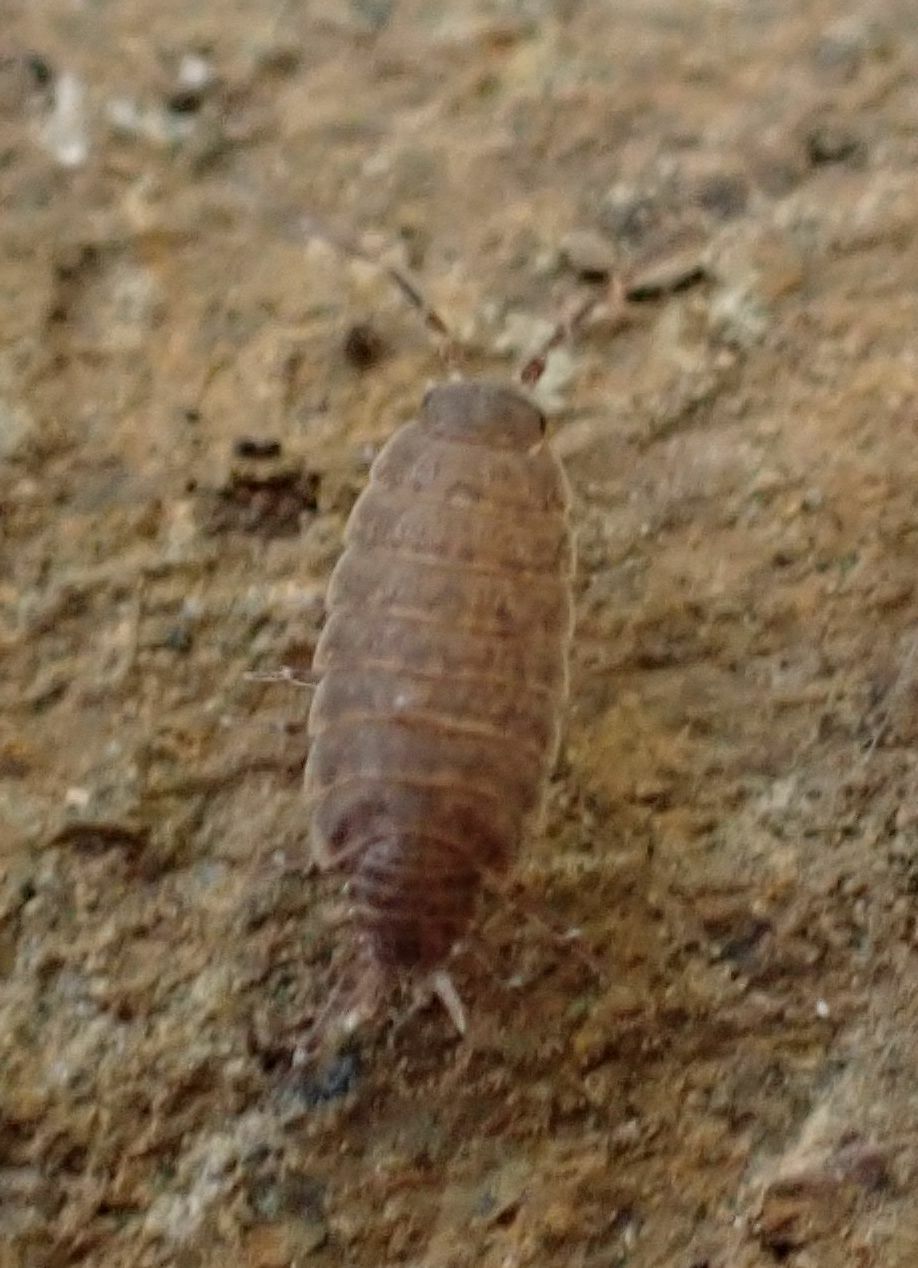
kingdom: Animalia
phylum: Arthropoda
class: Malacostraca
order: Isopoda
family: Porcellionidae
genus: Porcellionides
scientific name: Porcellionides fuscomarmoratus
